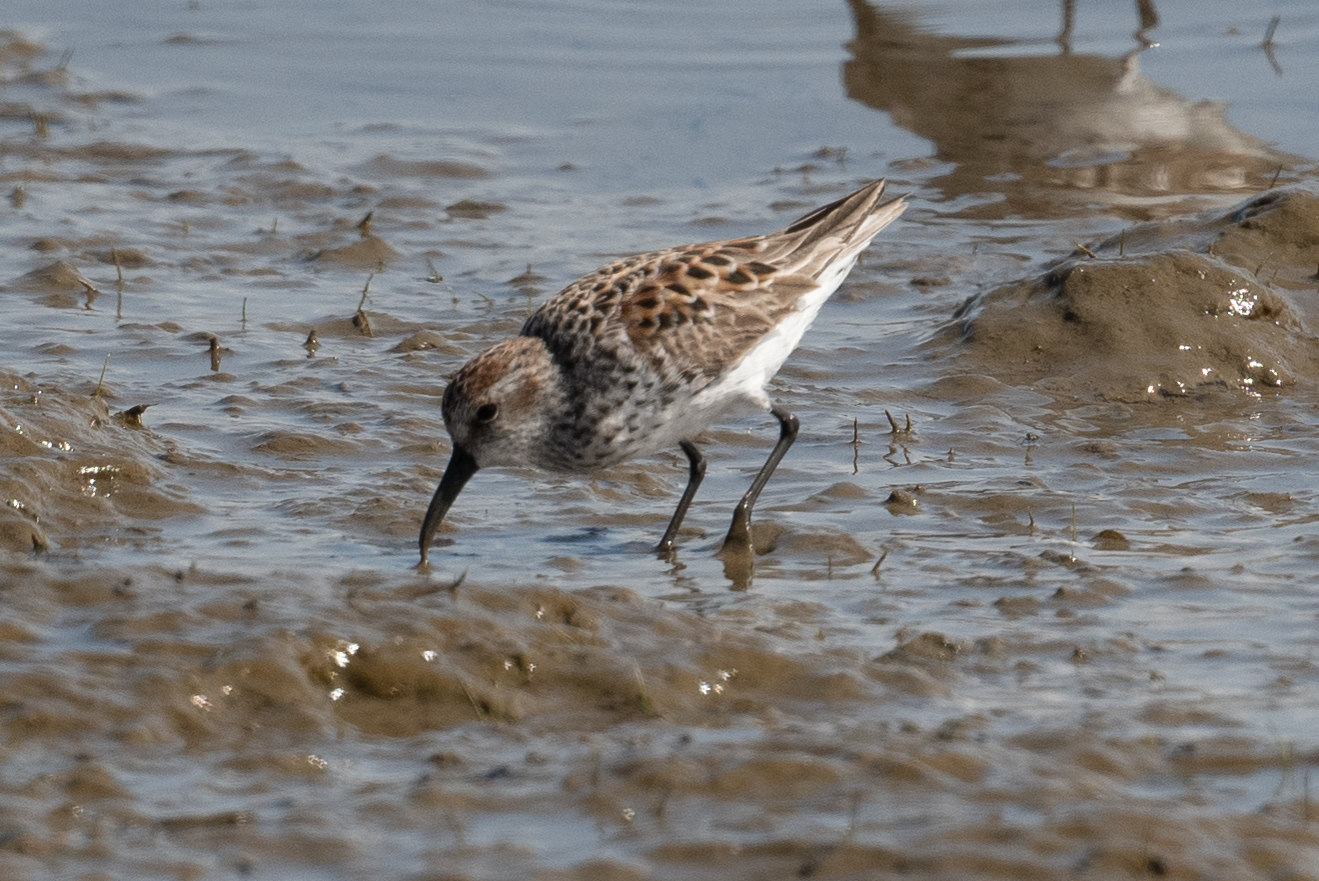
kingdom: Animalia
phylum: Chordata
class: Aves
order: Charadriiformes
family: Scolopacidae
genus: Calidris
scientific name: Calidris mauri
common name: Western sandpiper
